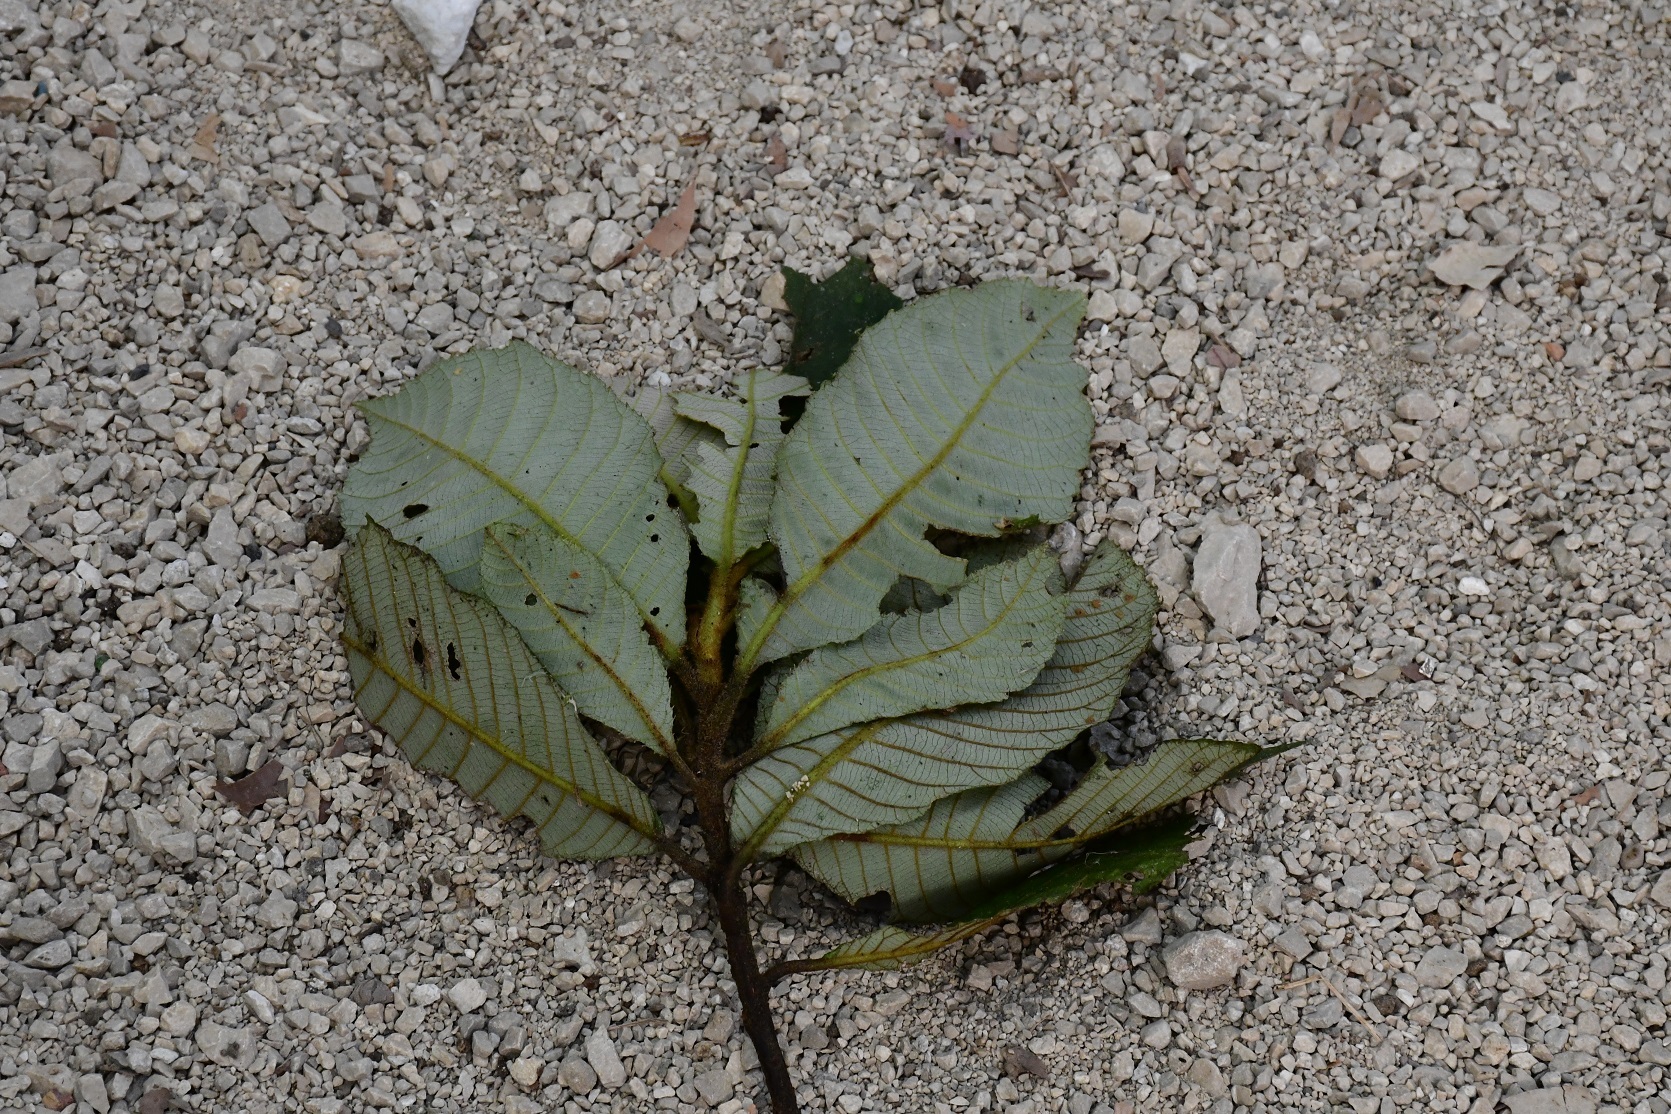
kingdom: Plantae
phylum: Tracheophyta
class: Magnoliopsida
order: Ericales
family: Clethraceae
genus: Clethra
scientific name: Clethra mexicana
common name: Nance macho
